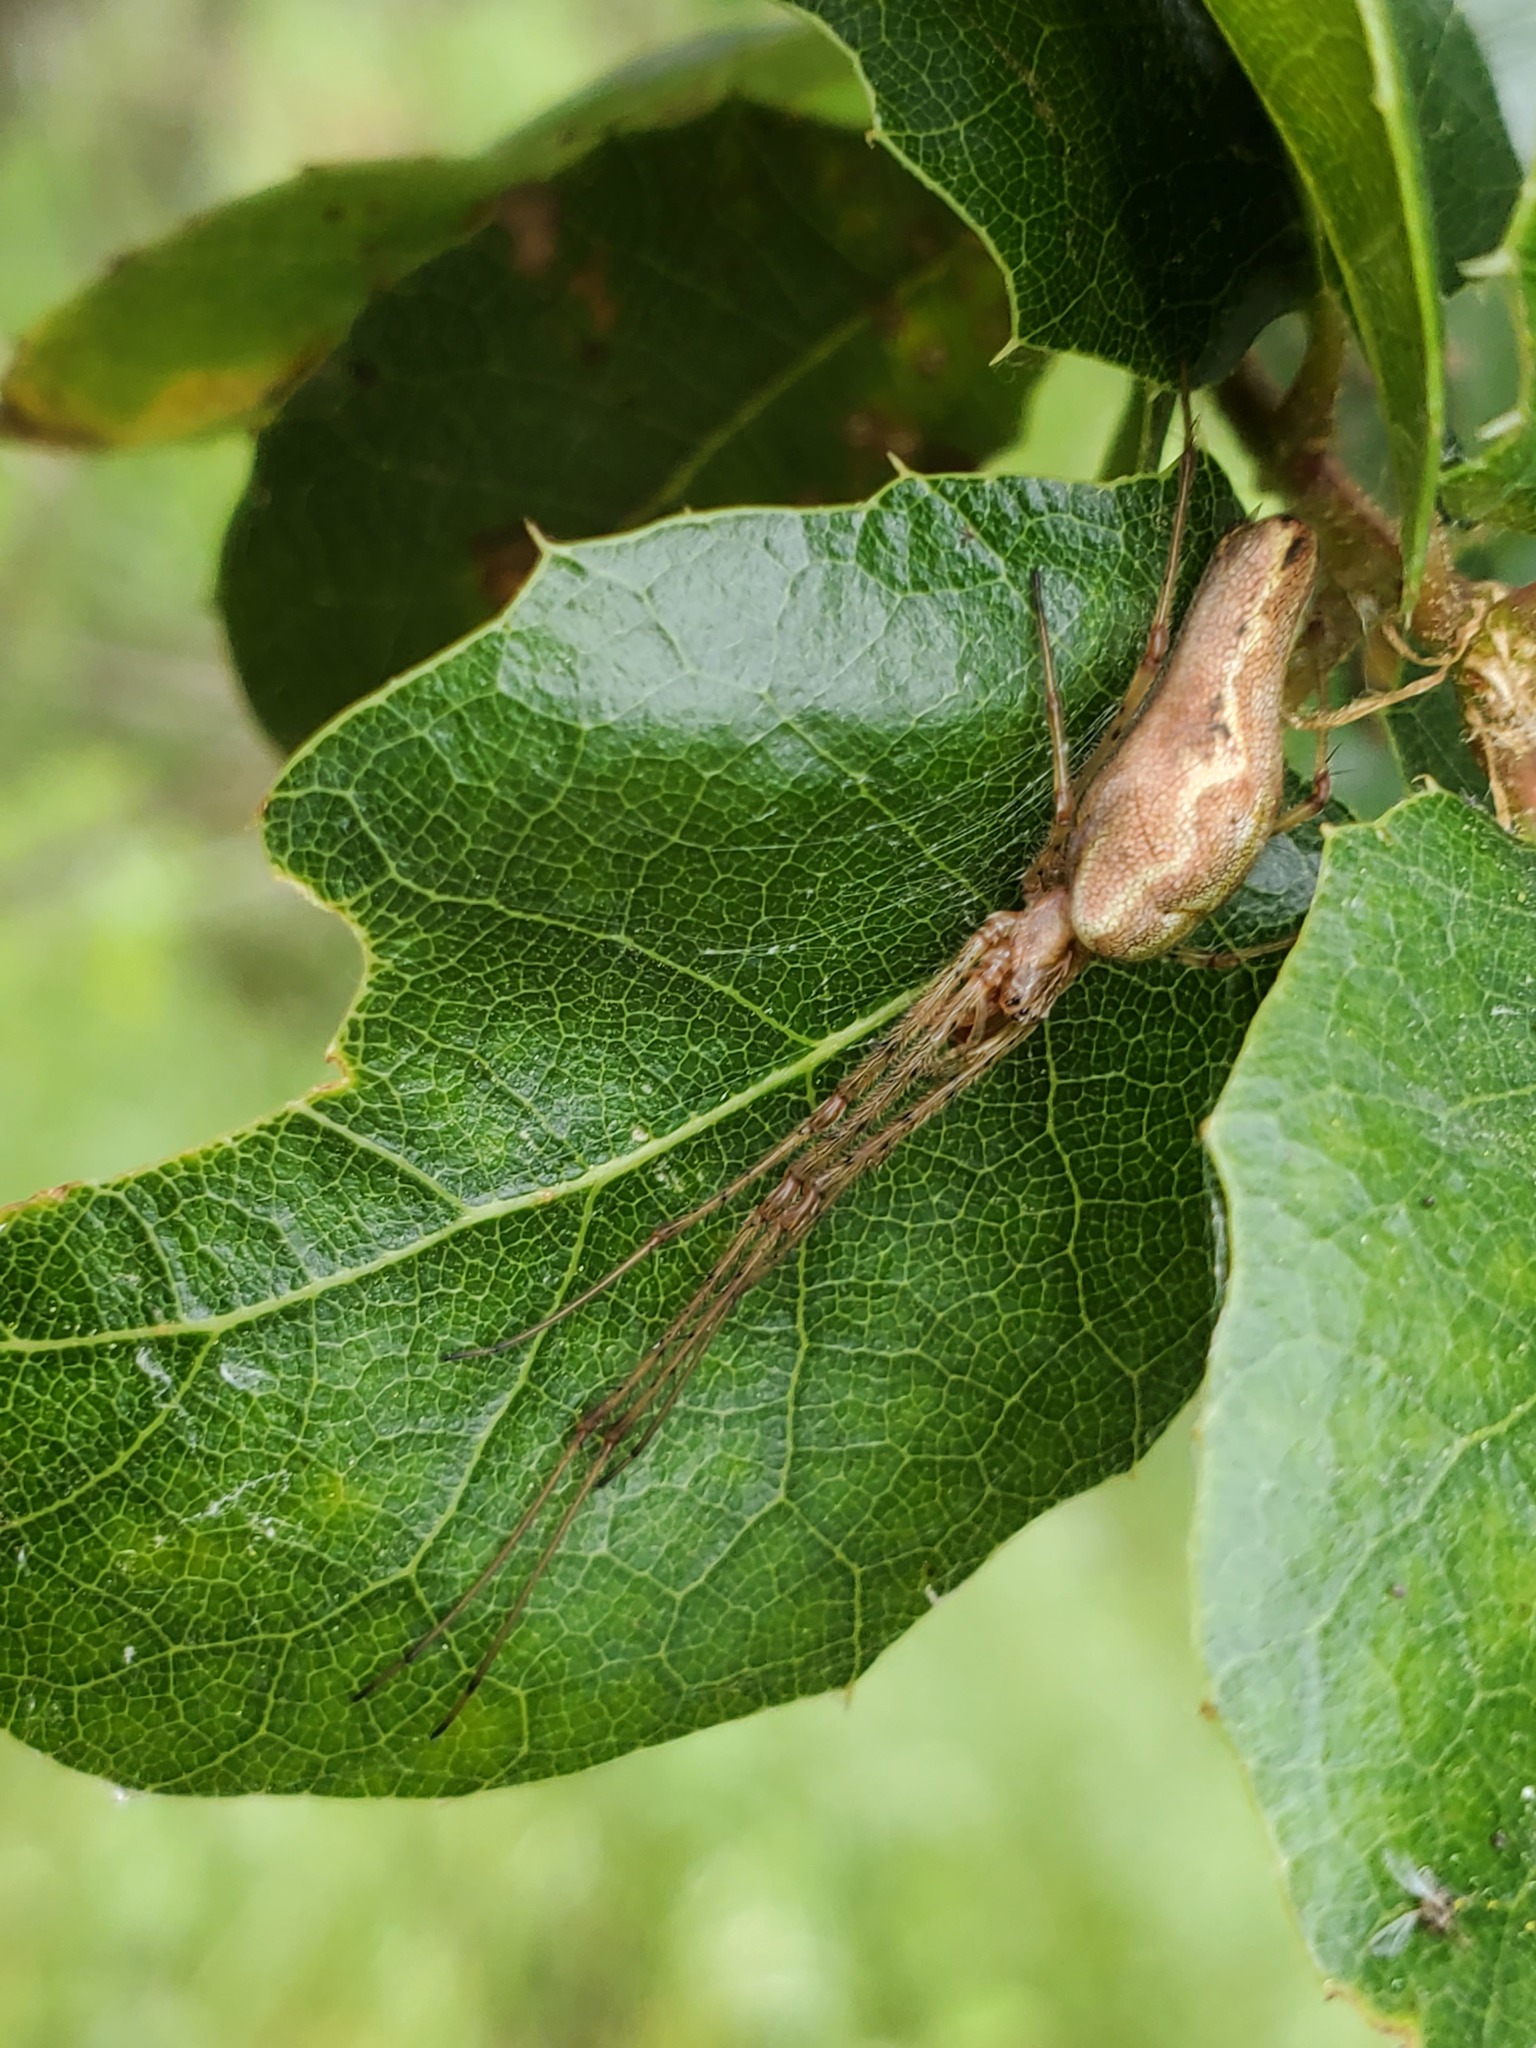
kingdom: Animalia
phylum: Arthropoda
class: Arachnida
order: Araneae
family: Tetragnathidae
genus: Tetragnatha
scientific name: Tetragnatha
